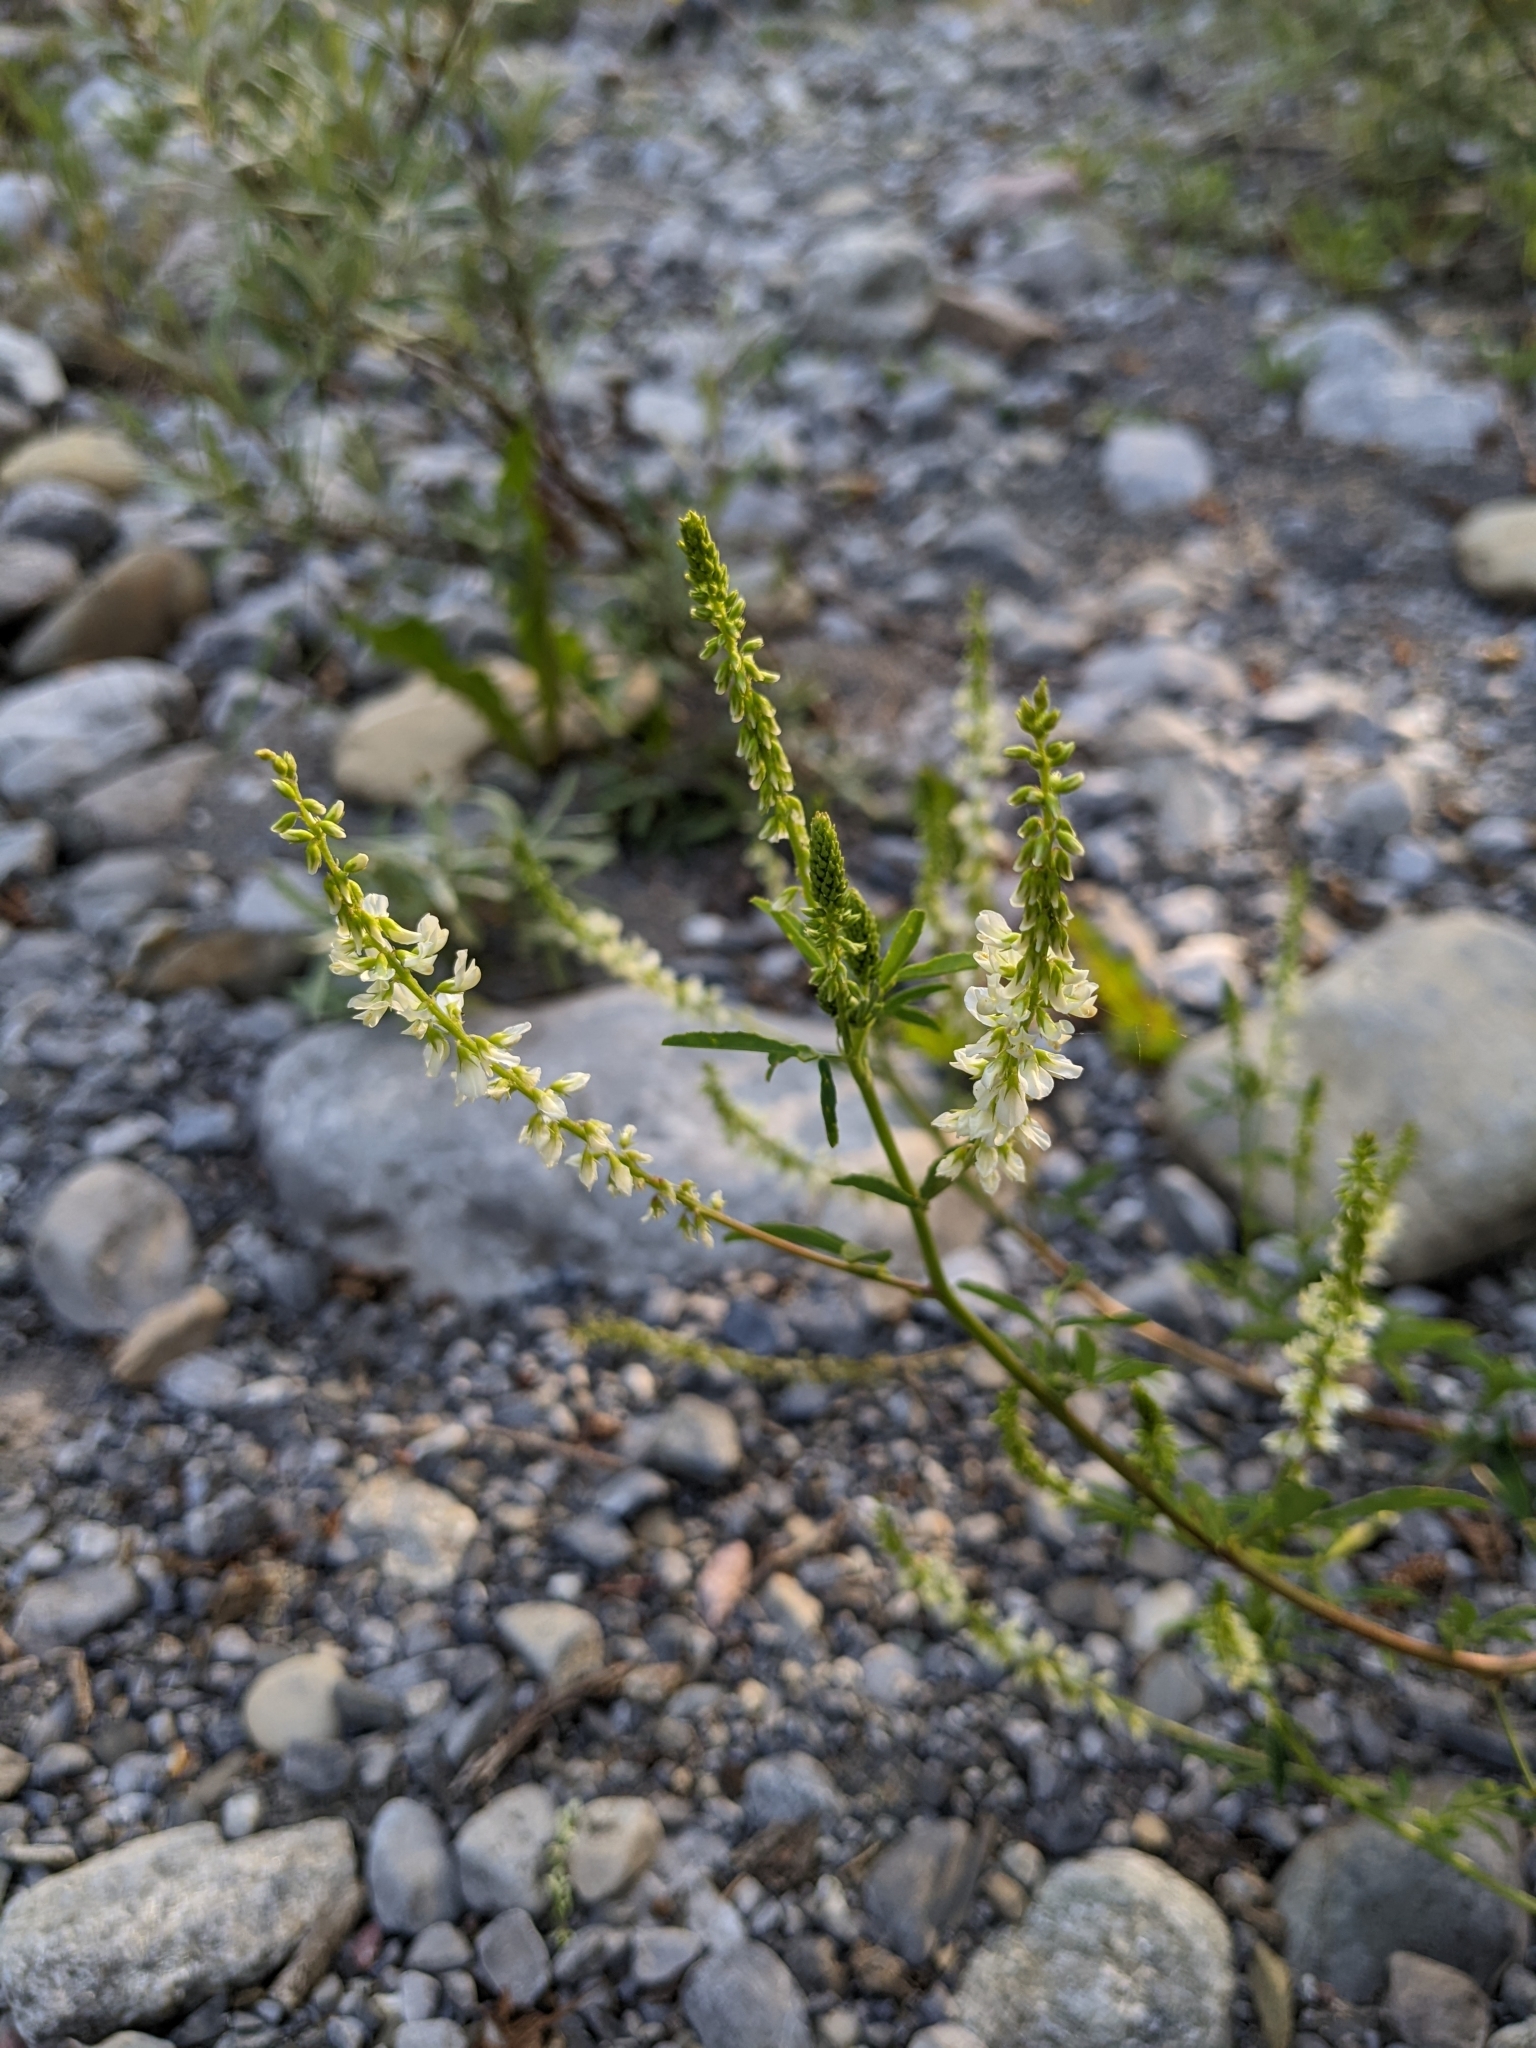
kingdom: Plantae
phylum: Tracheophyta
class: Magnoliopsida
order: Fabales
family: Fabaceae
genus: Melilotus
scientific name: Melilotus albus
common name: White melilot
